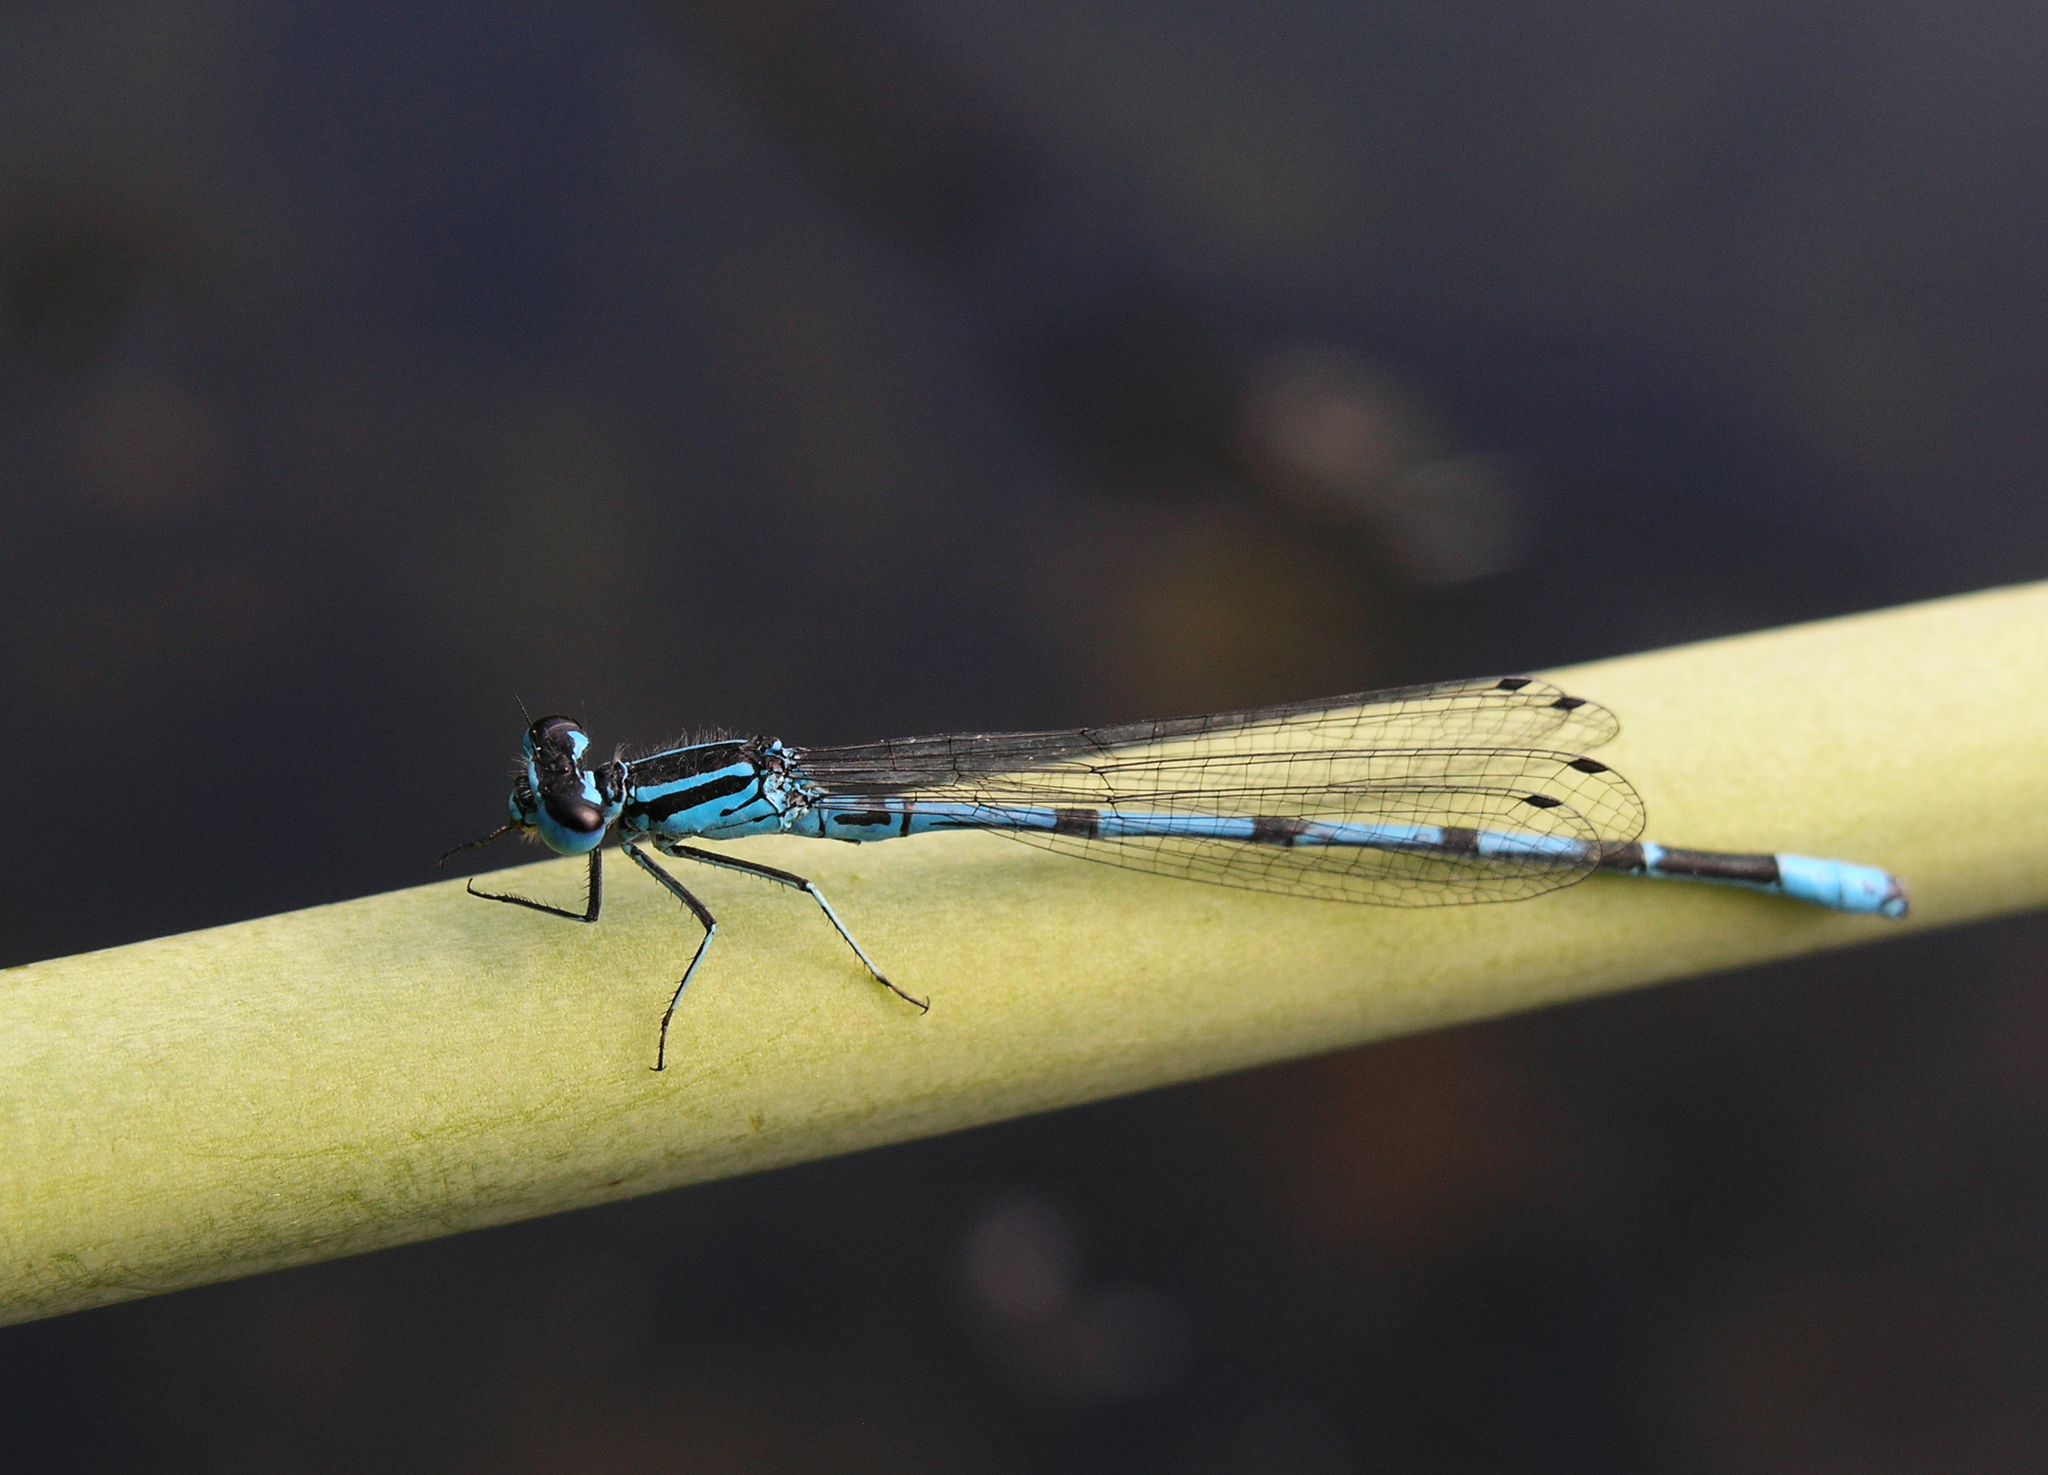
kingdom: Animalia
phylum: Arthropoda
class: Insecta
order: Odonata
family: Coenagrionidae
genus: Coenagrion
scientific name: Coenagrion puella
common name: Azure damselfly
